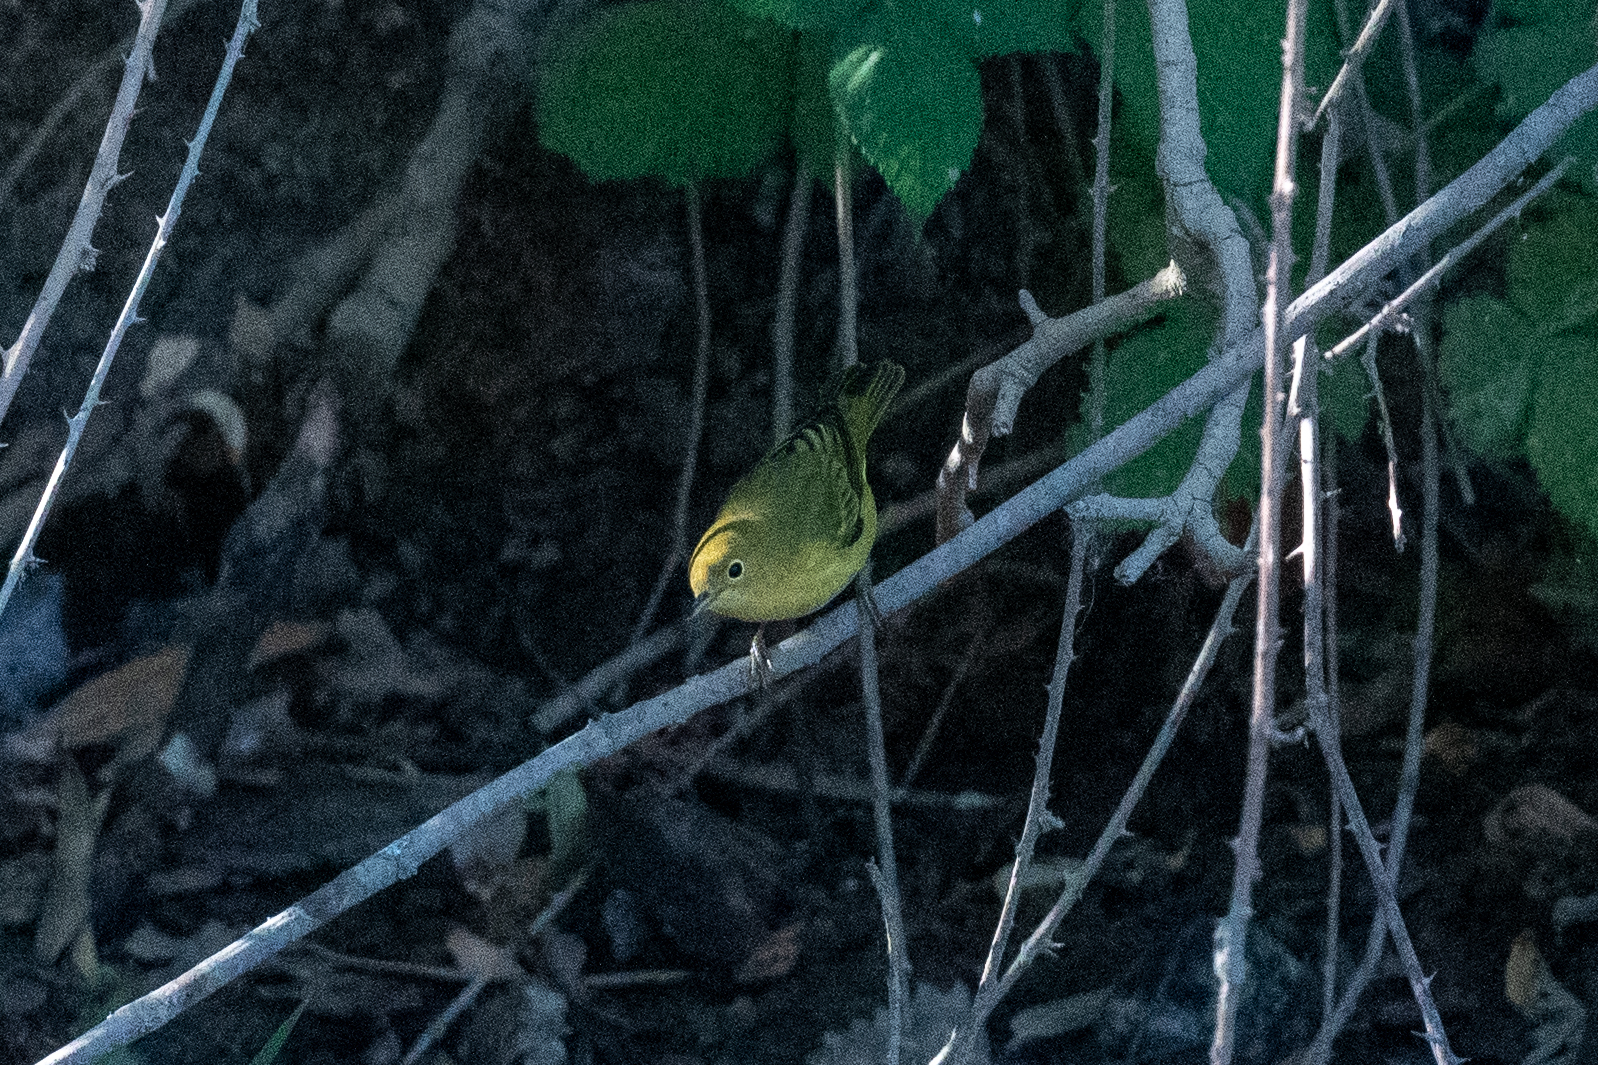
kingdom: Animalia
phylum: Chordata
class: Aves
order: Passeriformes
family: Parulidae
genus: Setophaga
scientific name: Setophaga petechia
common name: Yellow warbler
